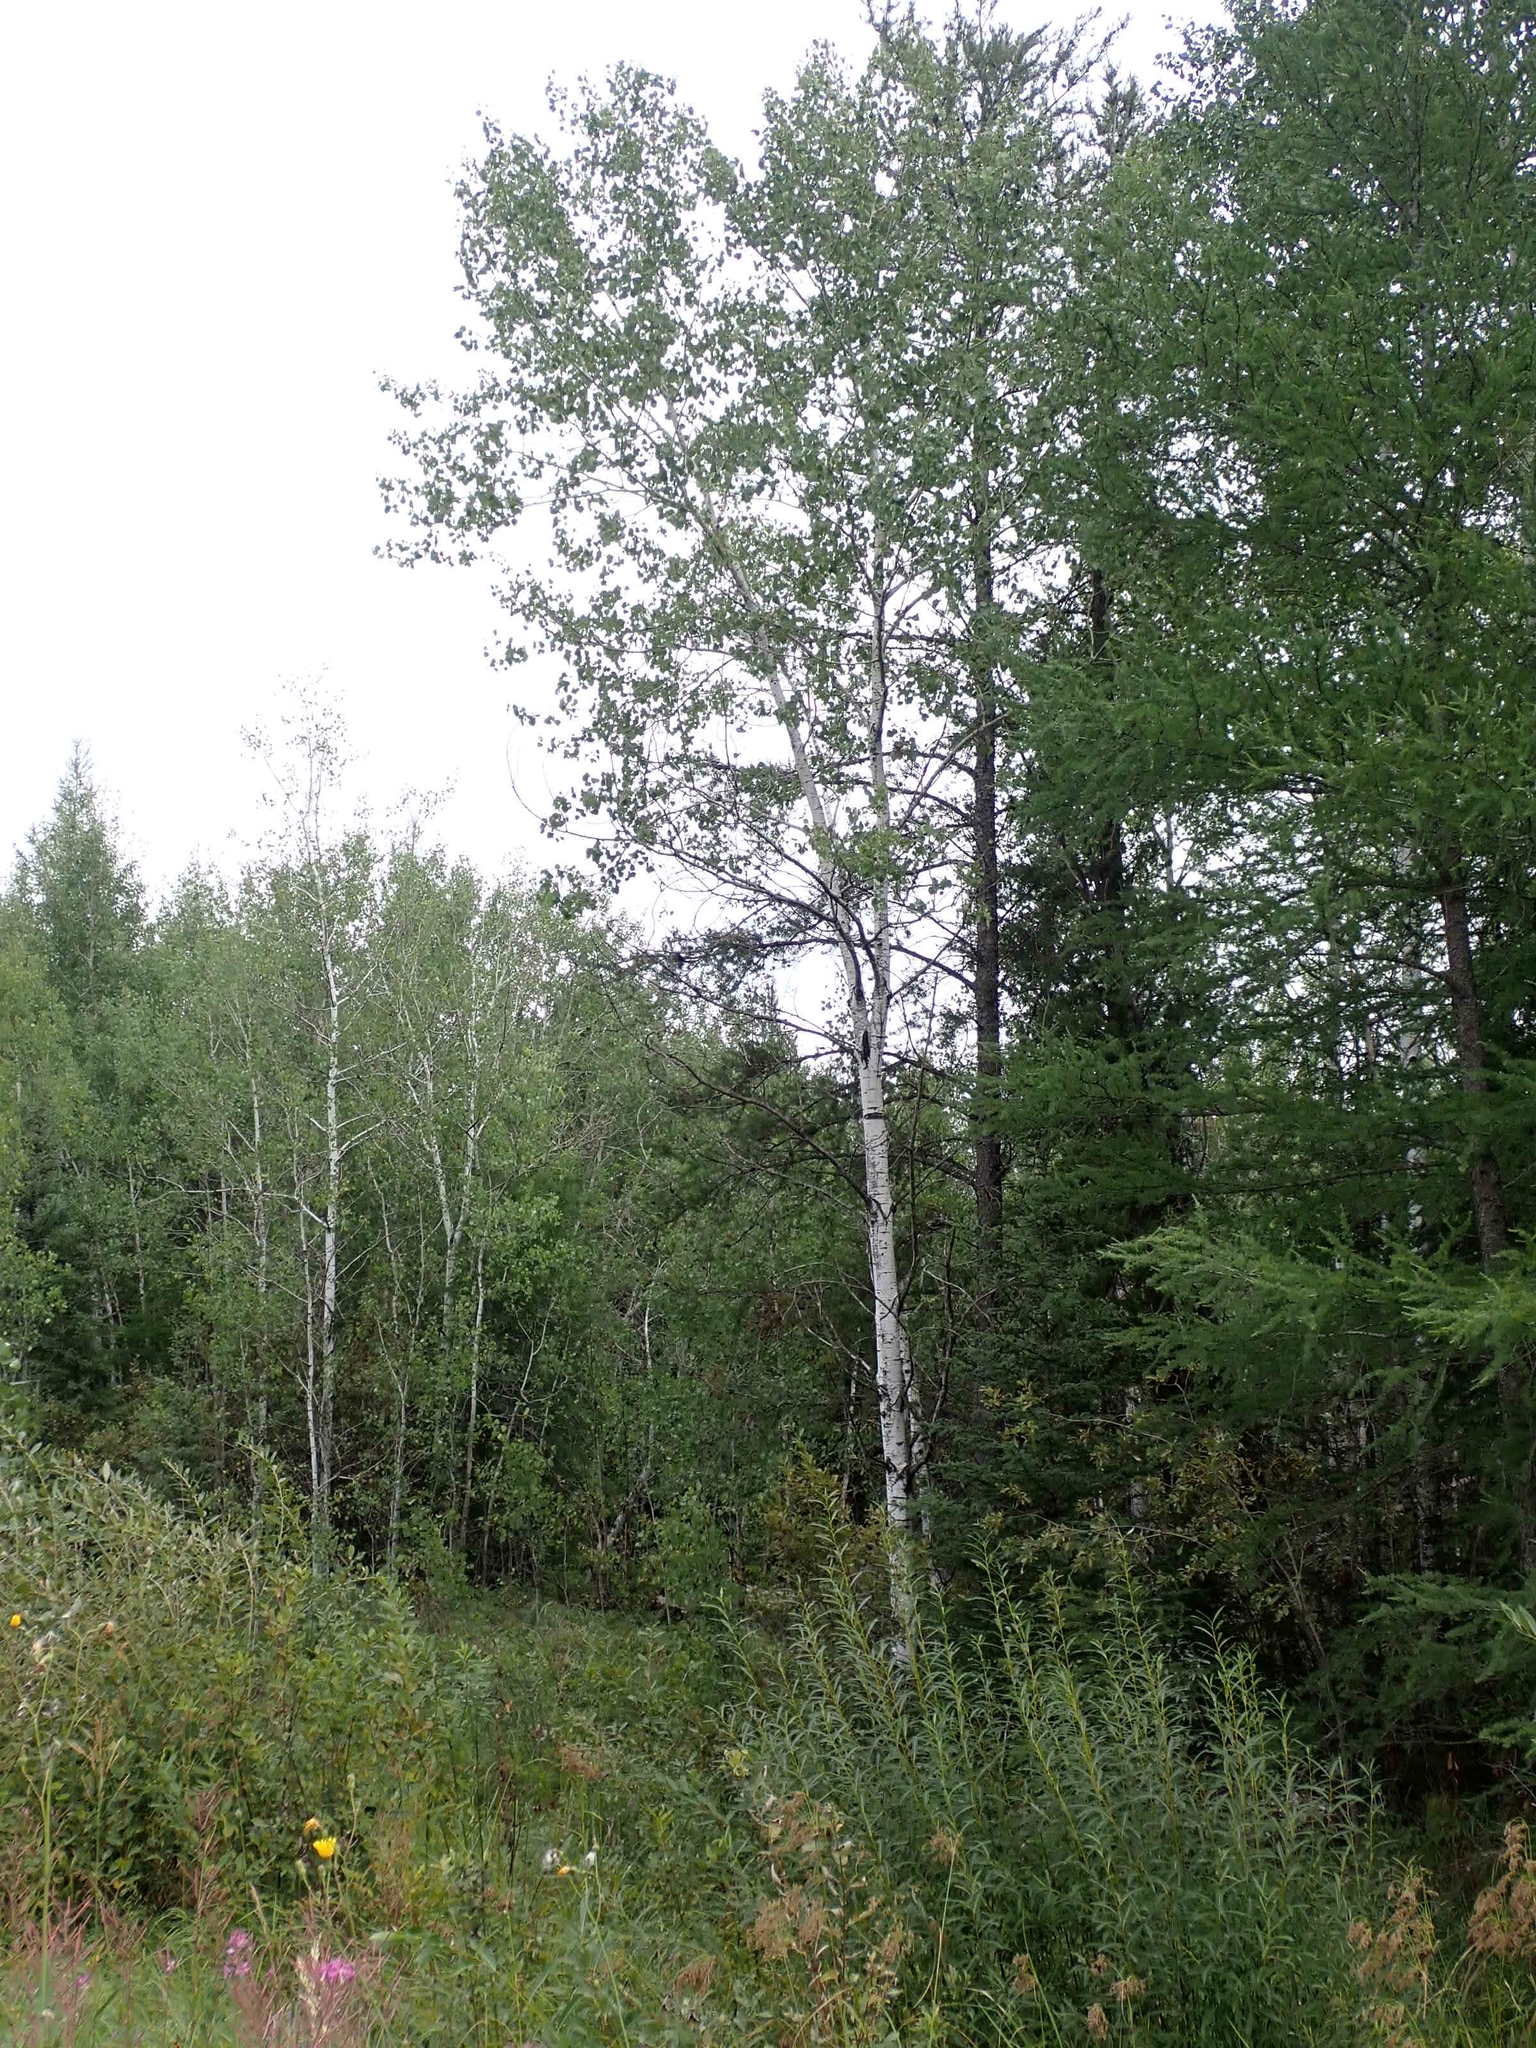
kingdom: Plantae
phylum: Tracheophyta
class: Magnoliopsida
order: Malpighiales
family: Salicaceae
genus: Populus
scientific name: Populus tremuloides
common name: Quaking aspen
